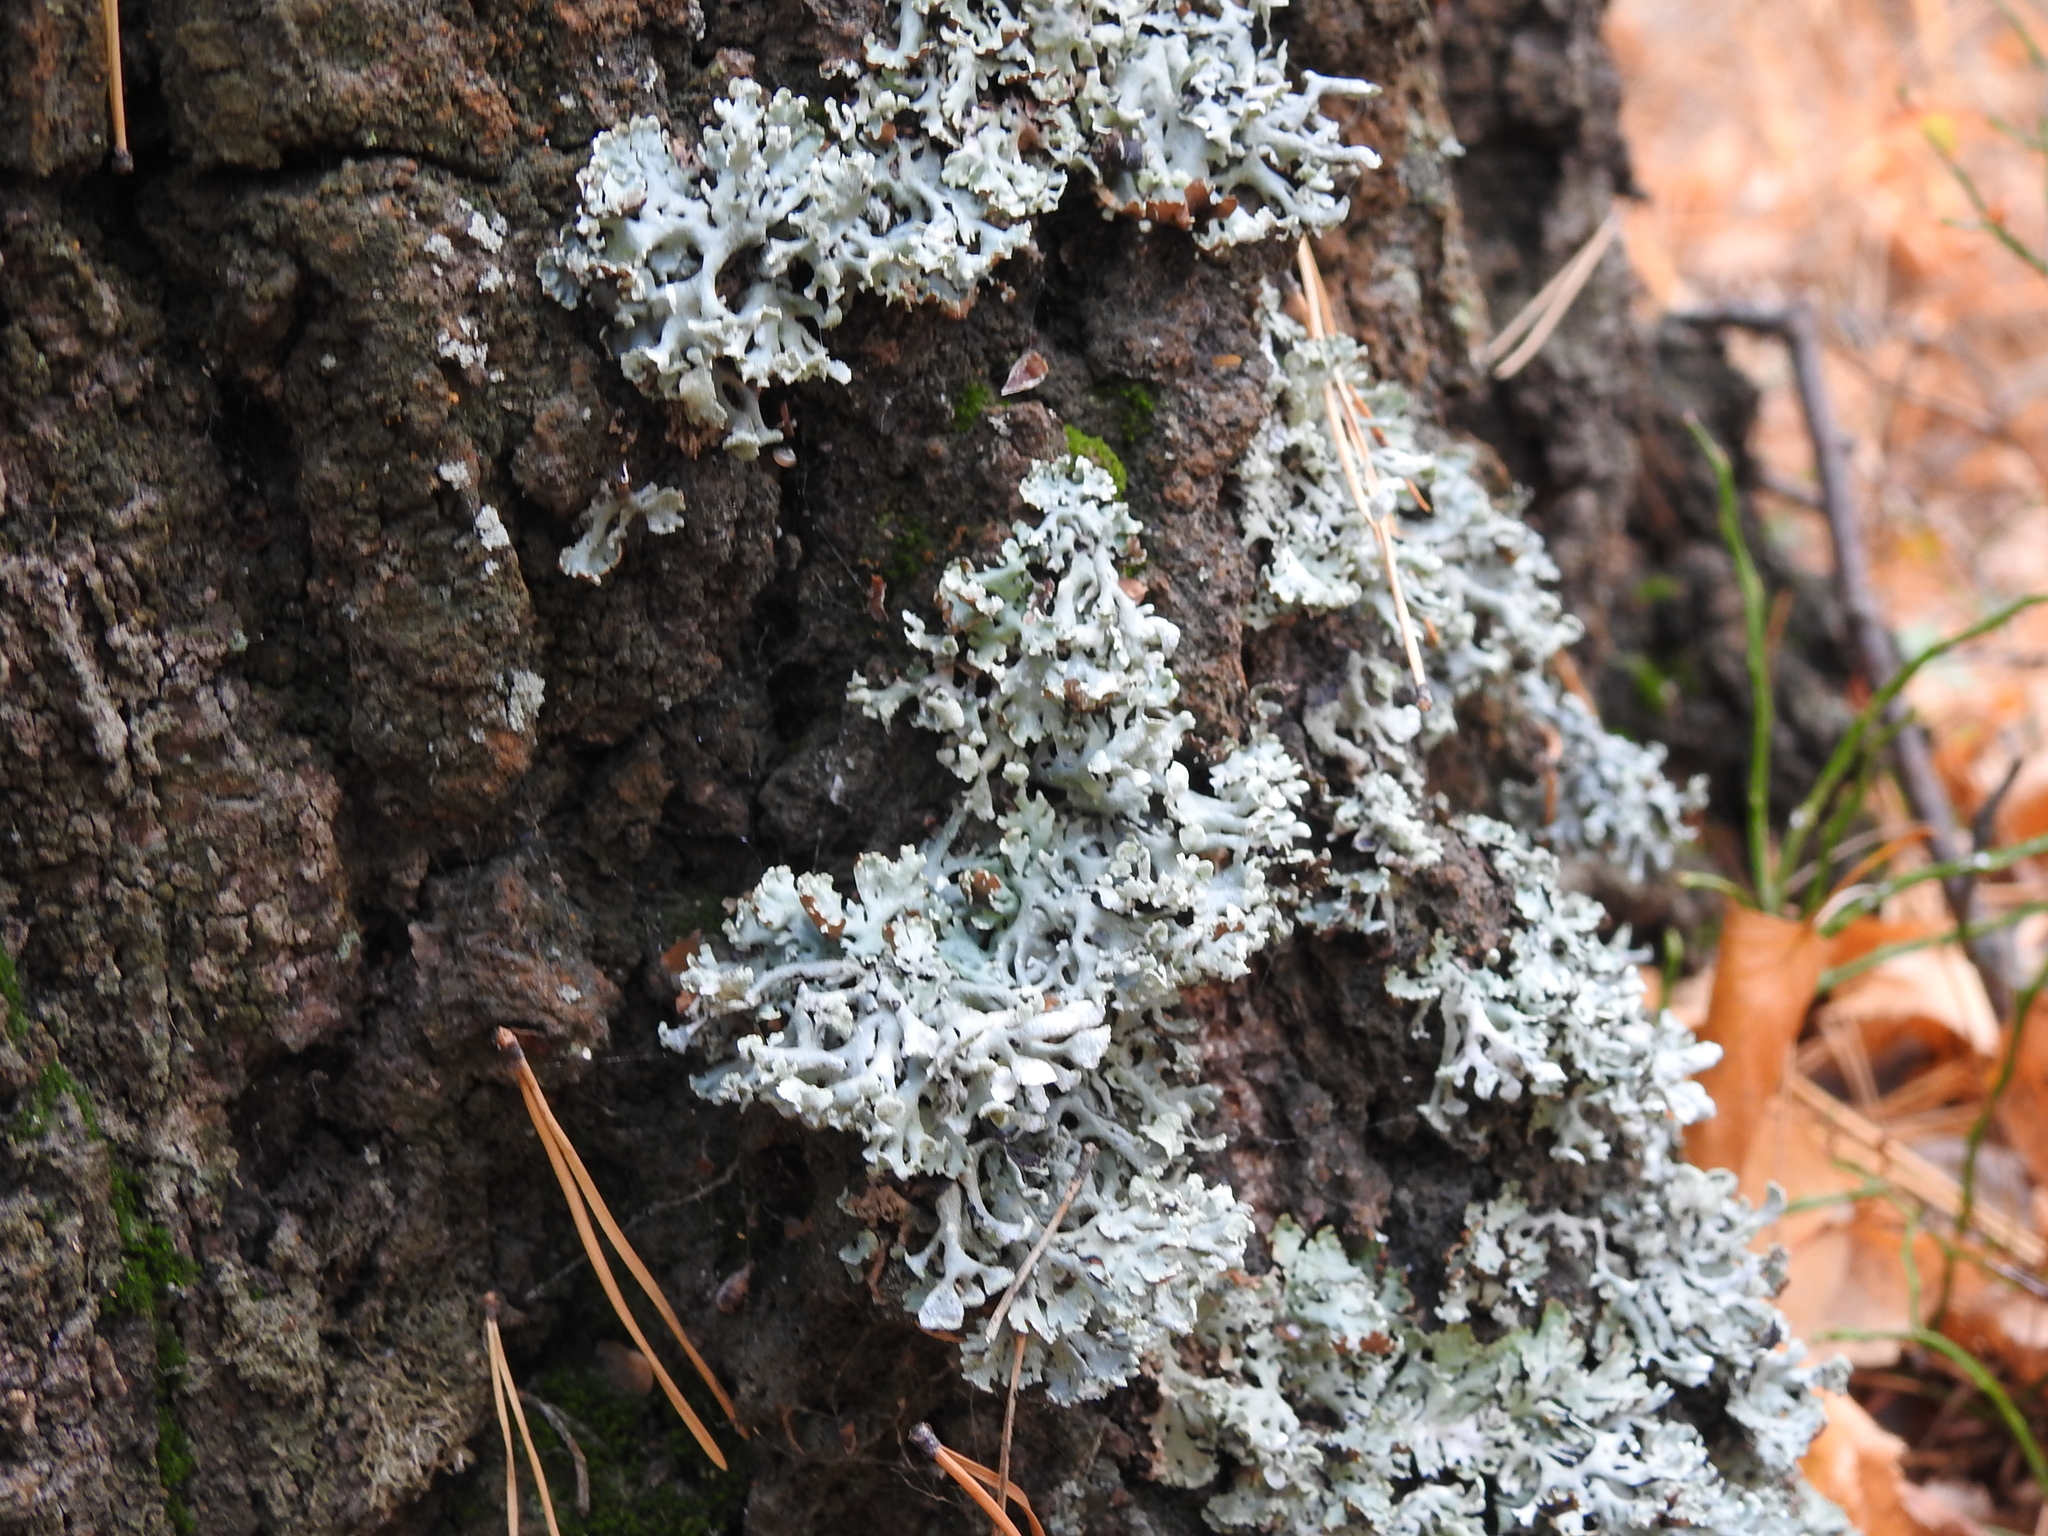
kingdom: Fungi
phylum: Ascomycota
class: Lecanoromycetes
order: Lecanorales
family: Parmeliaceae
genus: Hypogymnia
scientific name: Hypogymnia physodes
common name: Dark crottle
